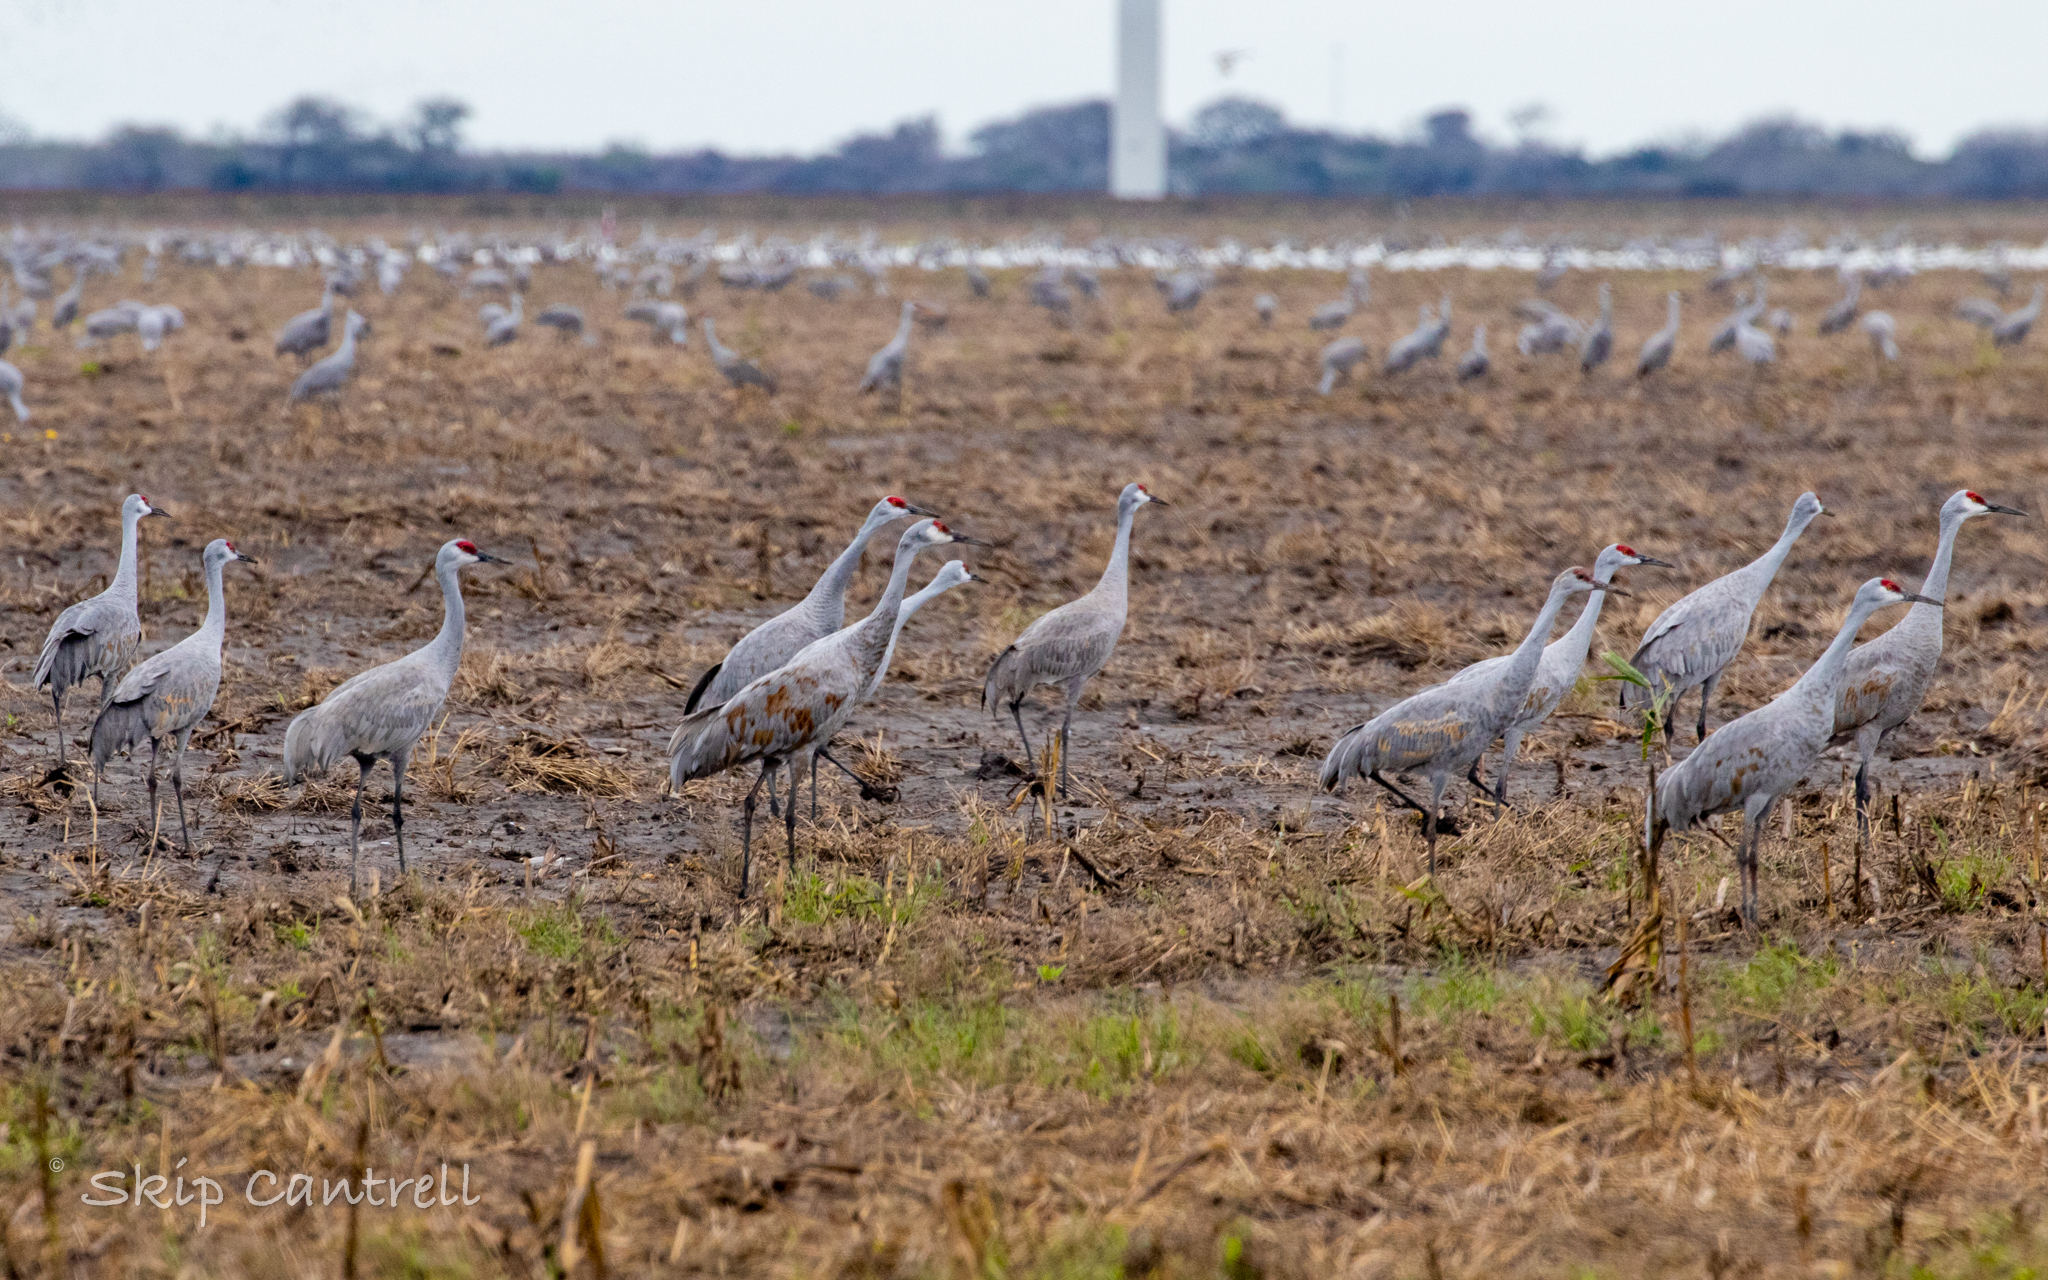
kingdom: Animalia
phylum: Chordata
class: Aves
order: Gruiformes
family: Gruidae
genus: Grus
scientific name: Grus canadensis
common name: Sandhill crane
